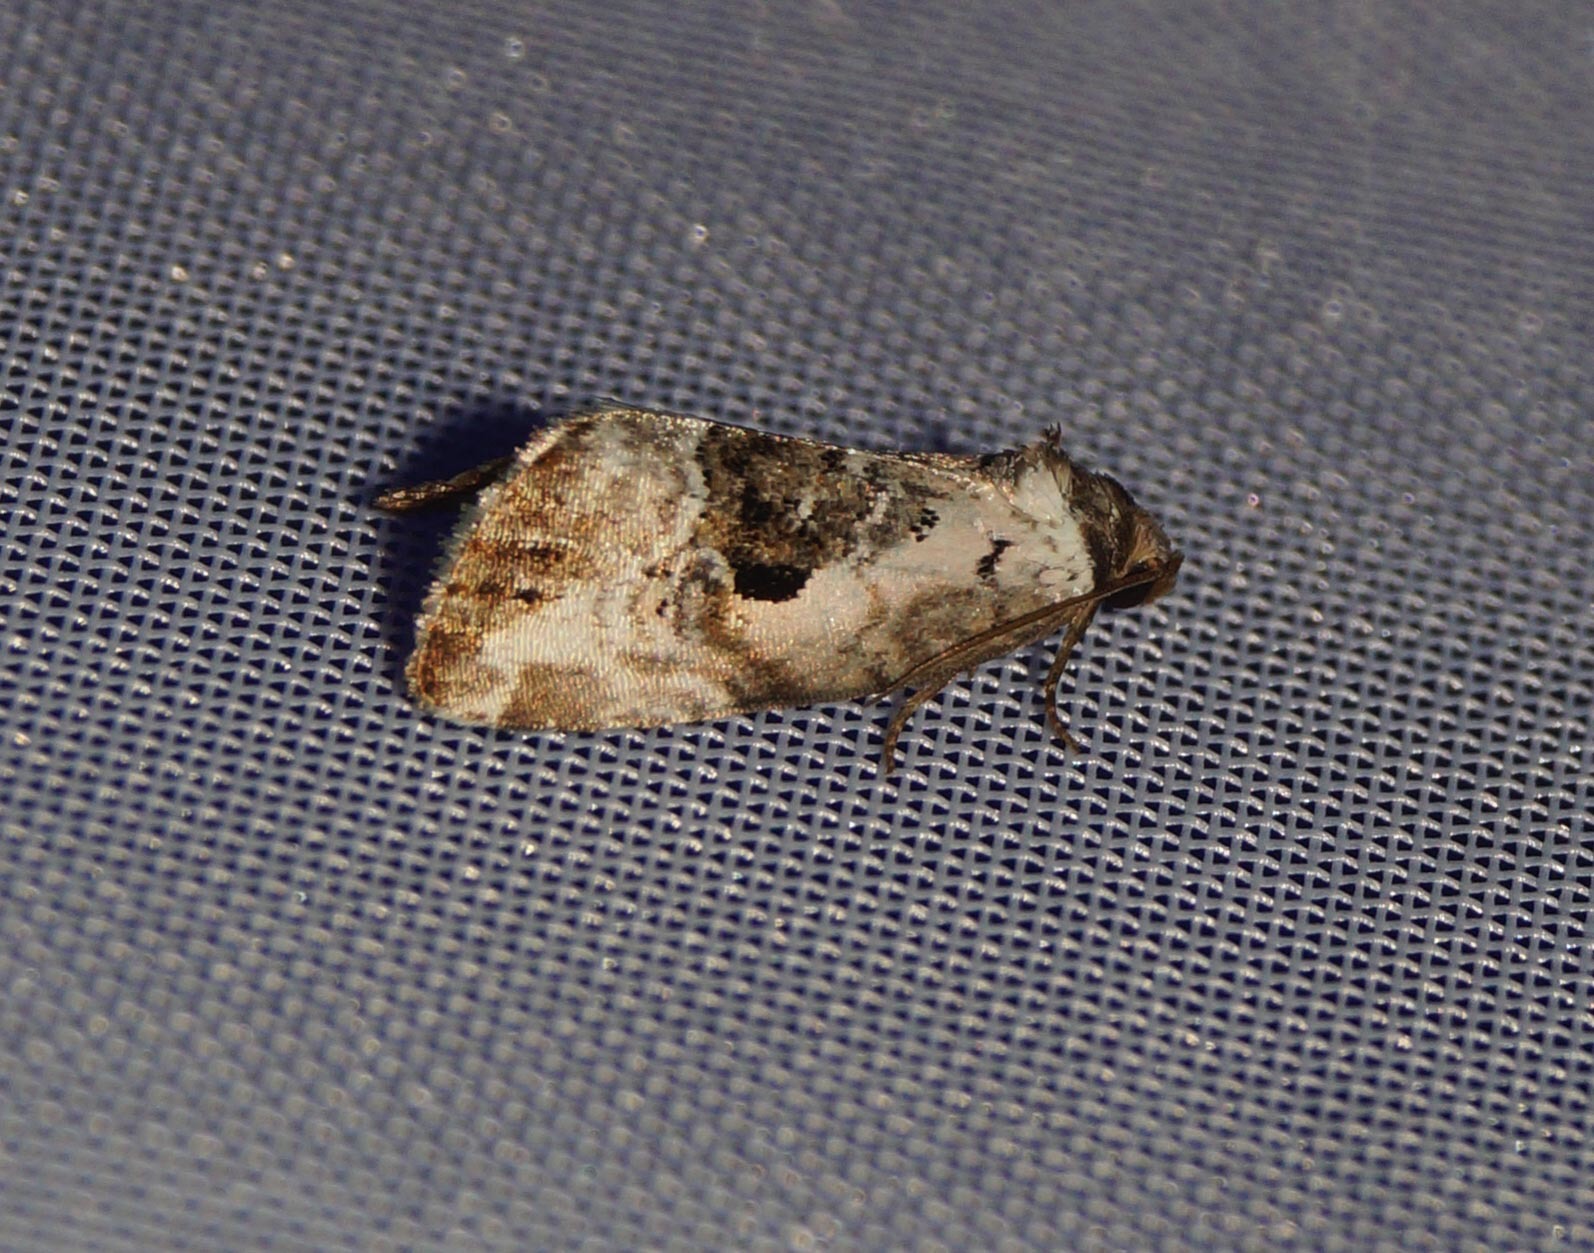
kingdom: Animalia
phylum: Arthropoda
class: Insecta
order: Lepidoptera
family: Noctuidae
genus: Elaphria
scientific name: Elaphria venustula
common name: Rosy marbled
